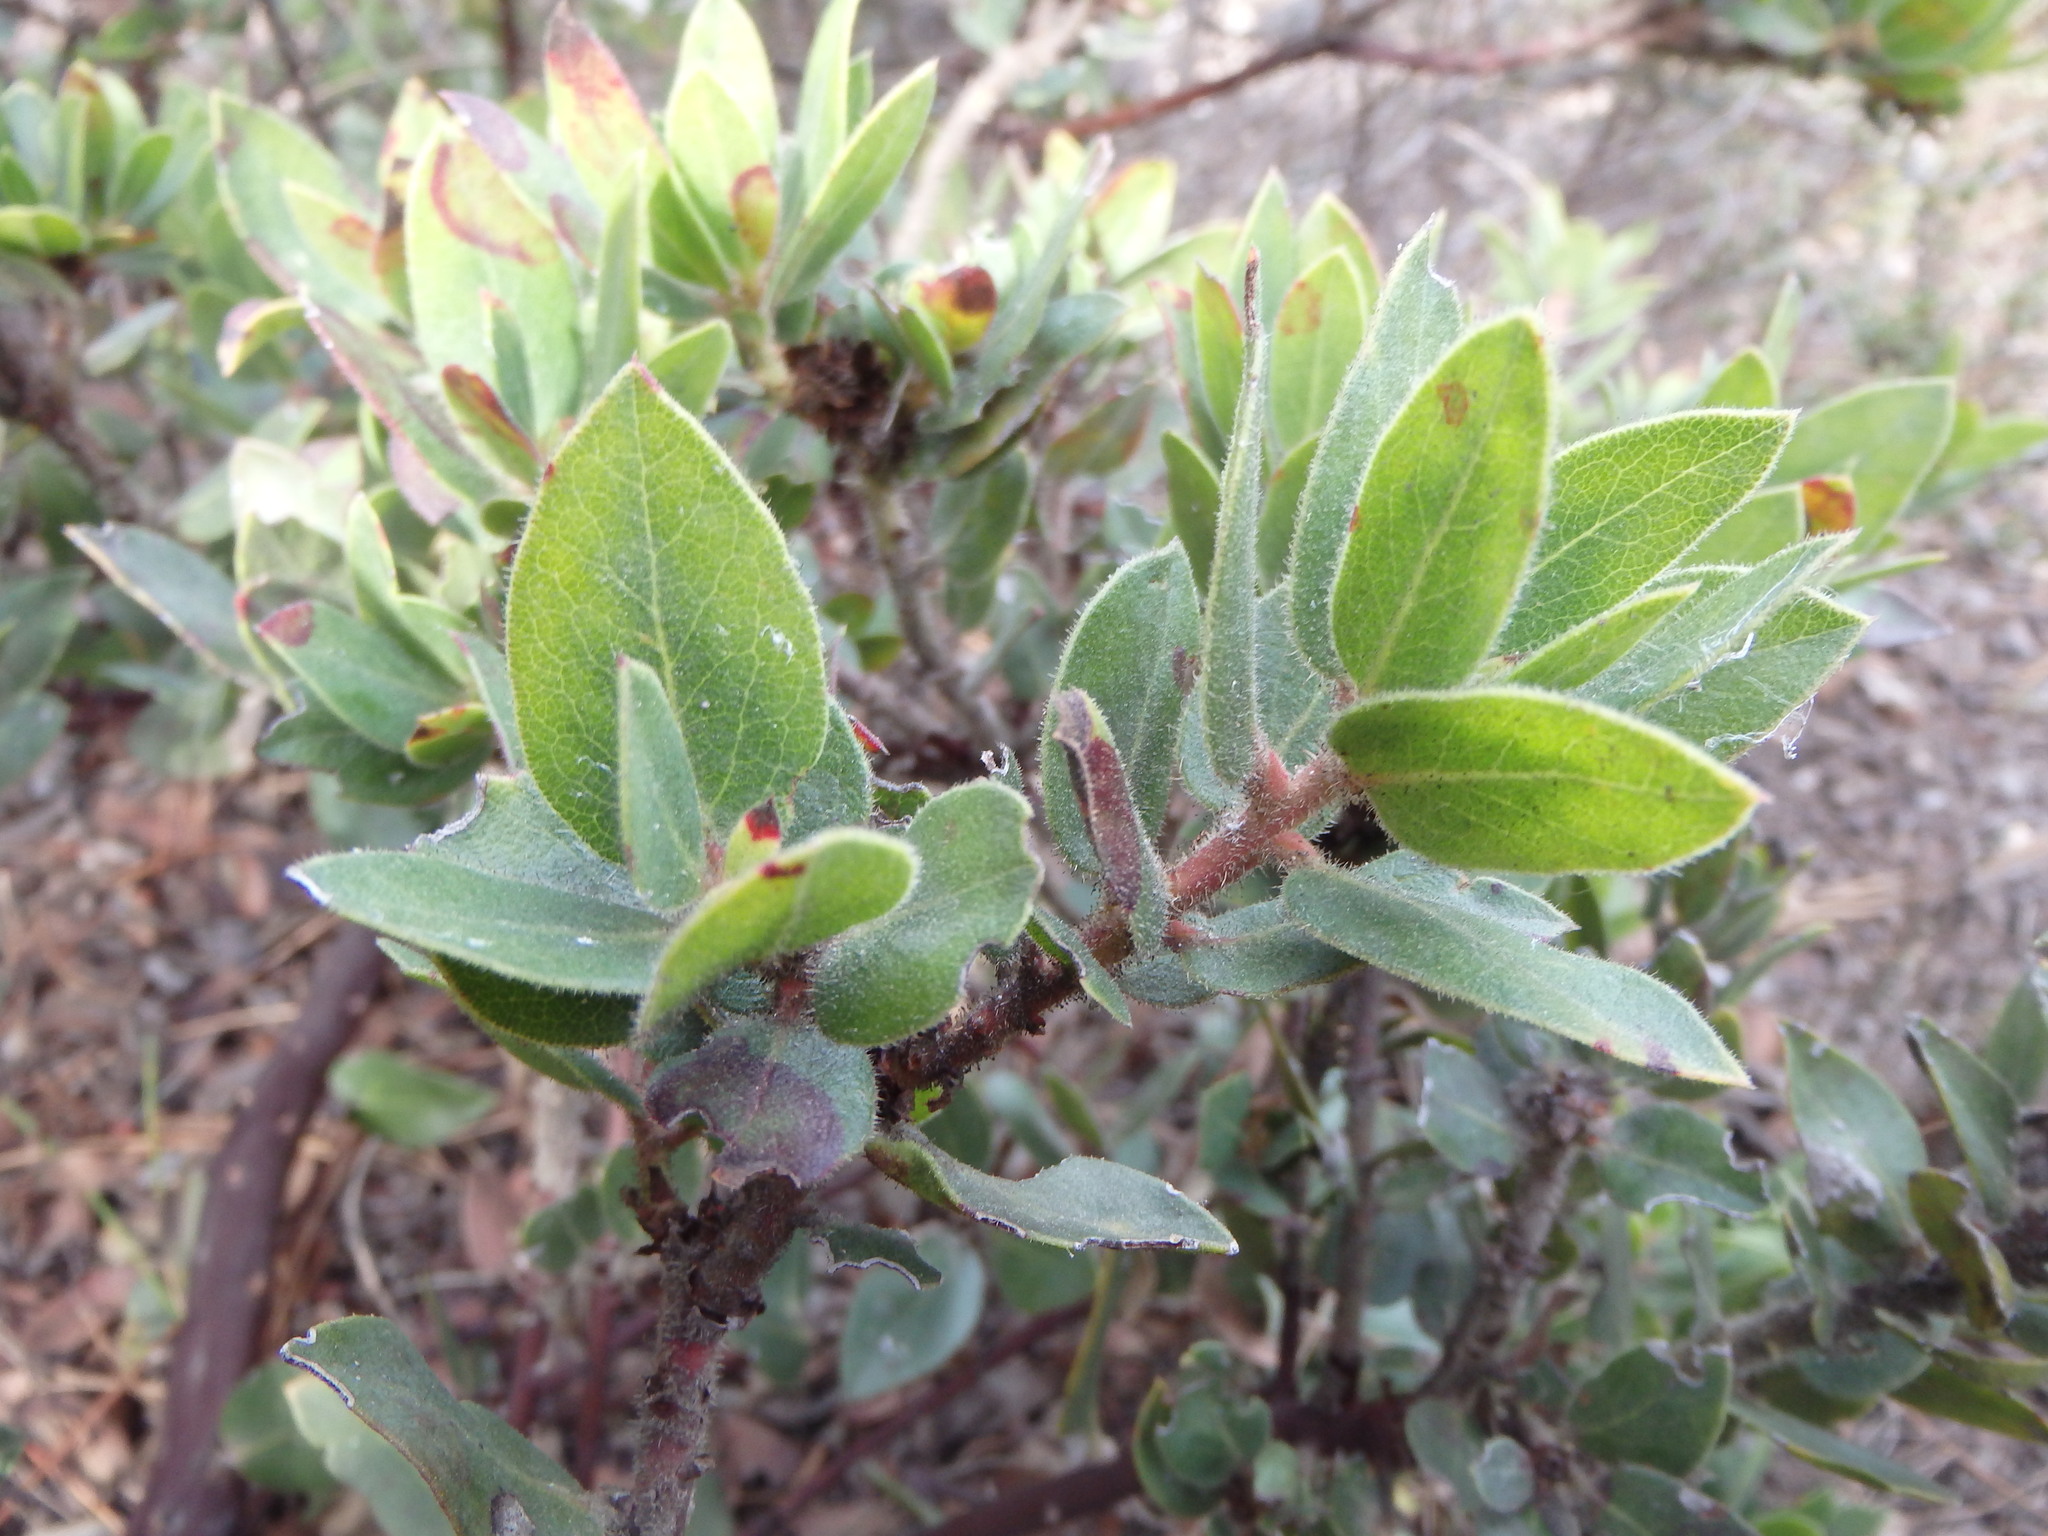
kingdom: Plantae
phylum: Tracheophyta
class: Magnoliopsida
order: Ericales
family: Ericaceae
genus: Arctostaphylos
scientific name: Arctostaphylos glandulosa
